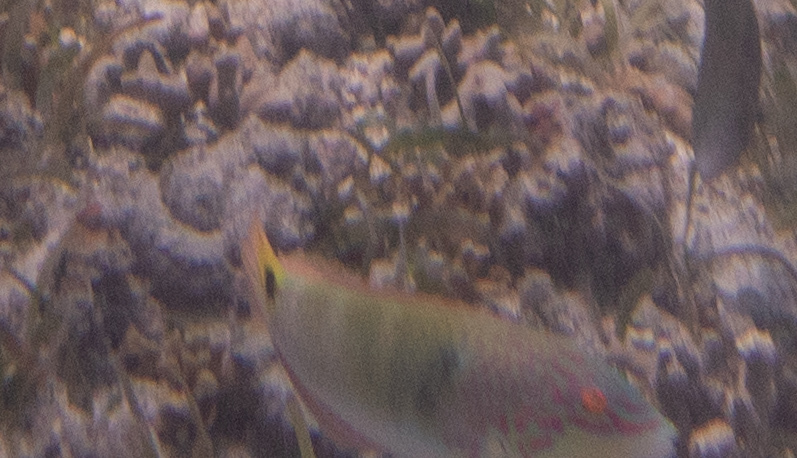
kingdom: Animalia
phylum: Chordata
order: Perciformes
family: Labridae
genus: Halichoeres
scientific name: Halichoeres trimaculatus
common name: Three-spot wrasse
